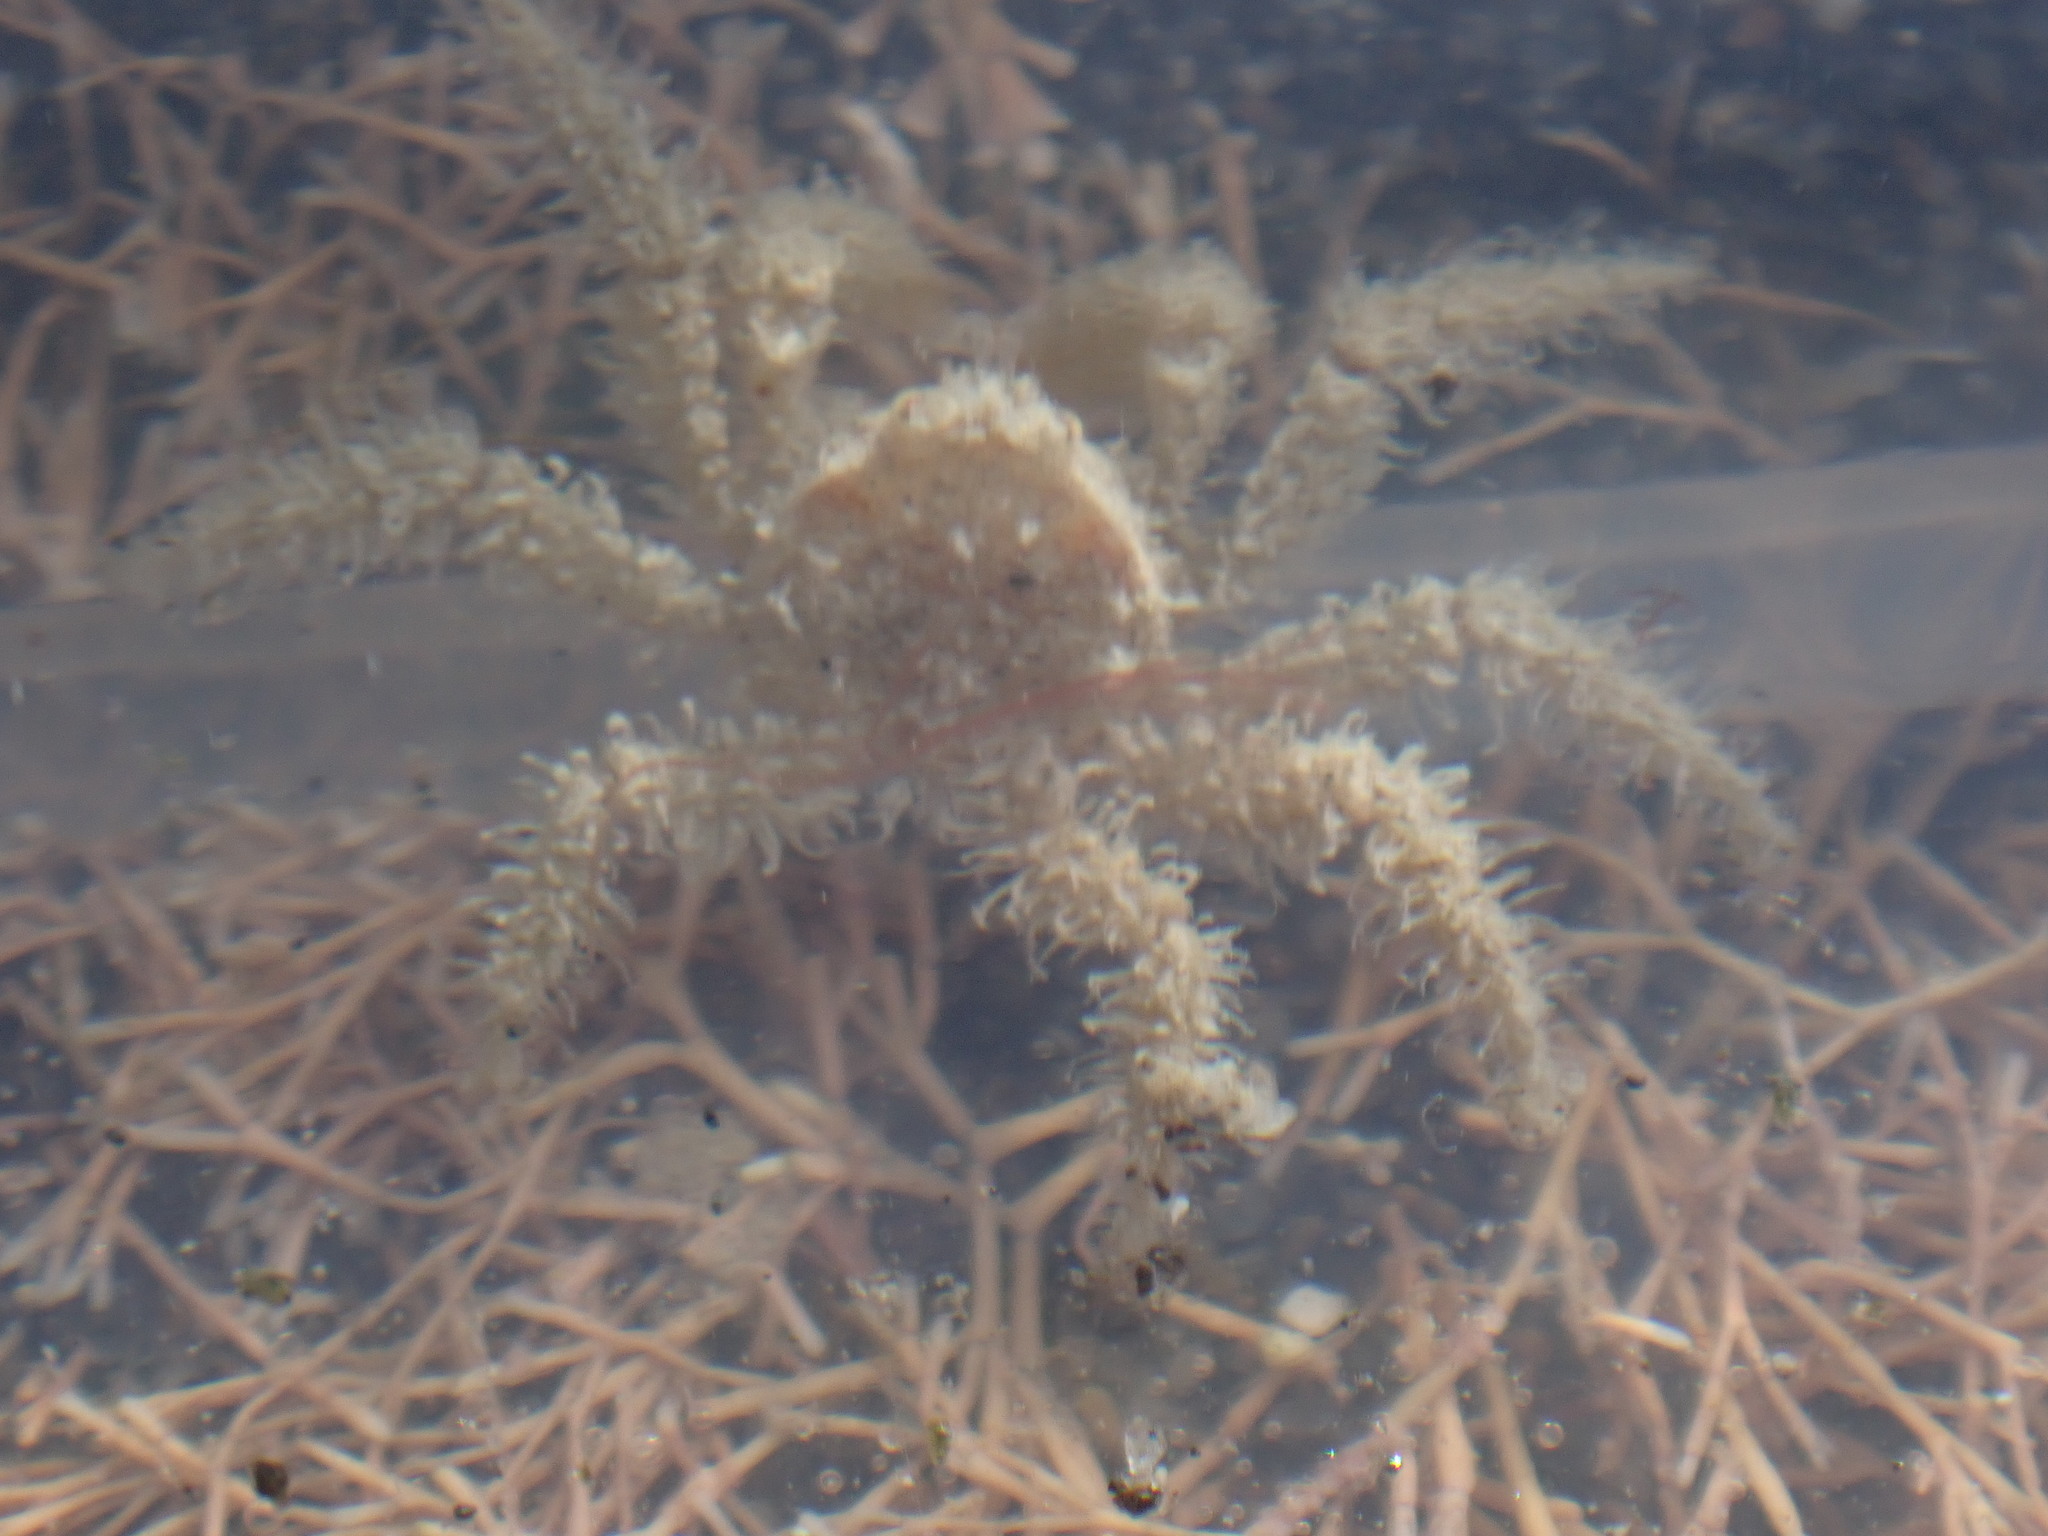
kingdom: Animalia
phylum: Arthropoda
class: Malacostraca
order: Decapoda
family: Hymenosomatidae
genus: Neohymenicus
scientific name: Neohymenicus pubescens
